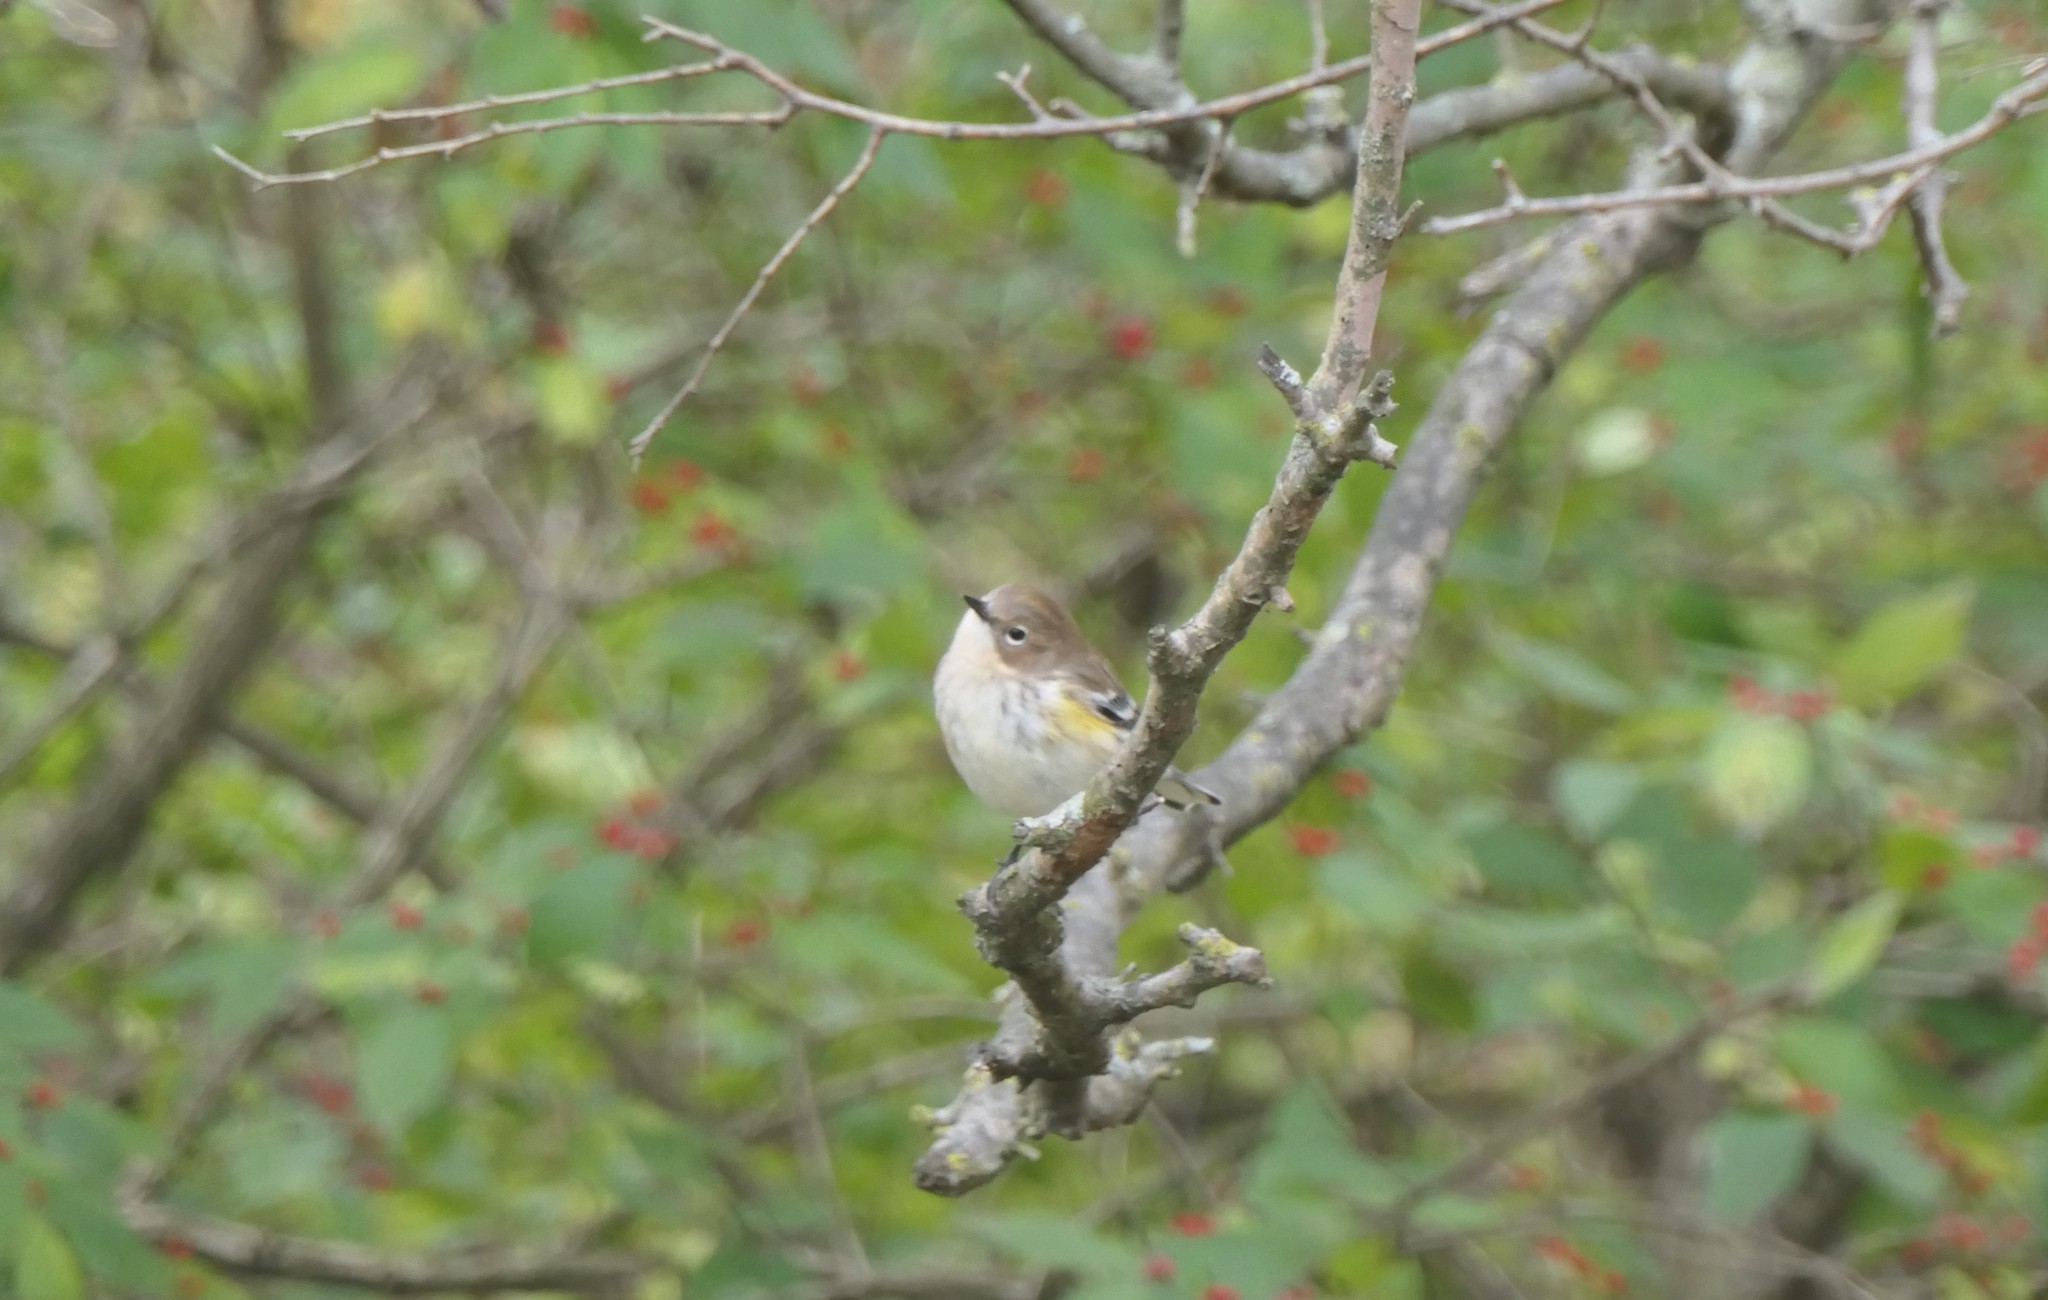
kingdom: Animalia
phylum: Chordata
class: Aves
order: Passeriformes
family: Parulidae
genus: Setophaga
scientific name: Setophaga coronata
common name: Myrtle warbler
